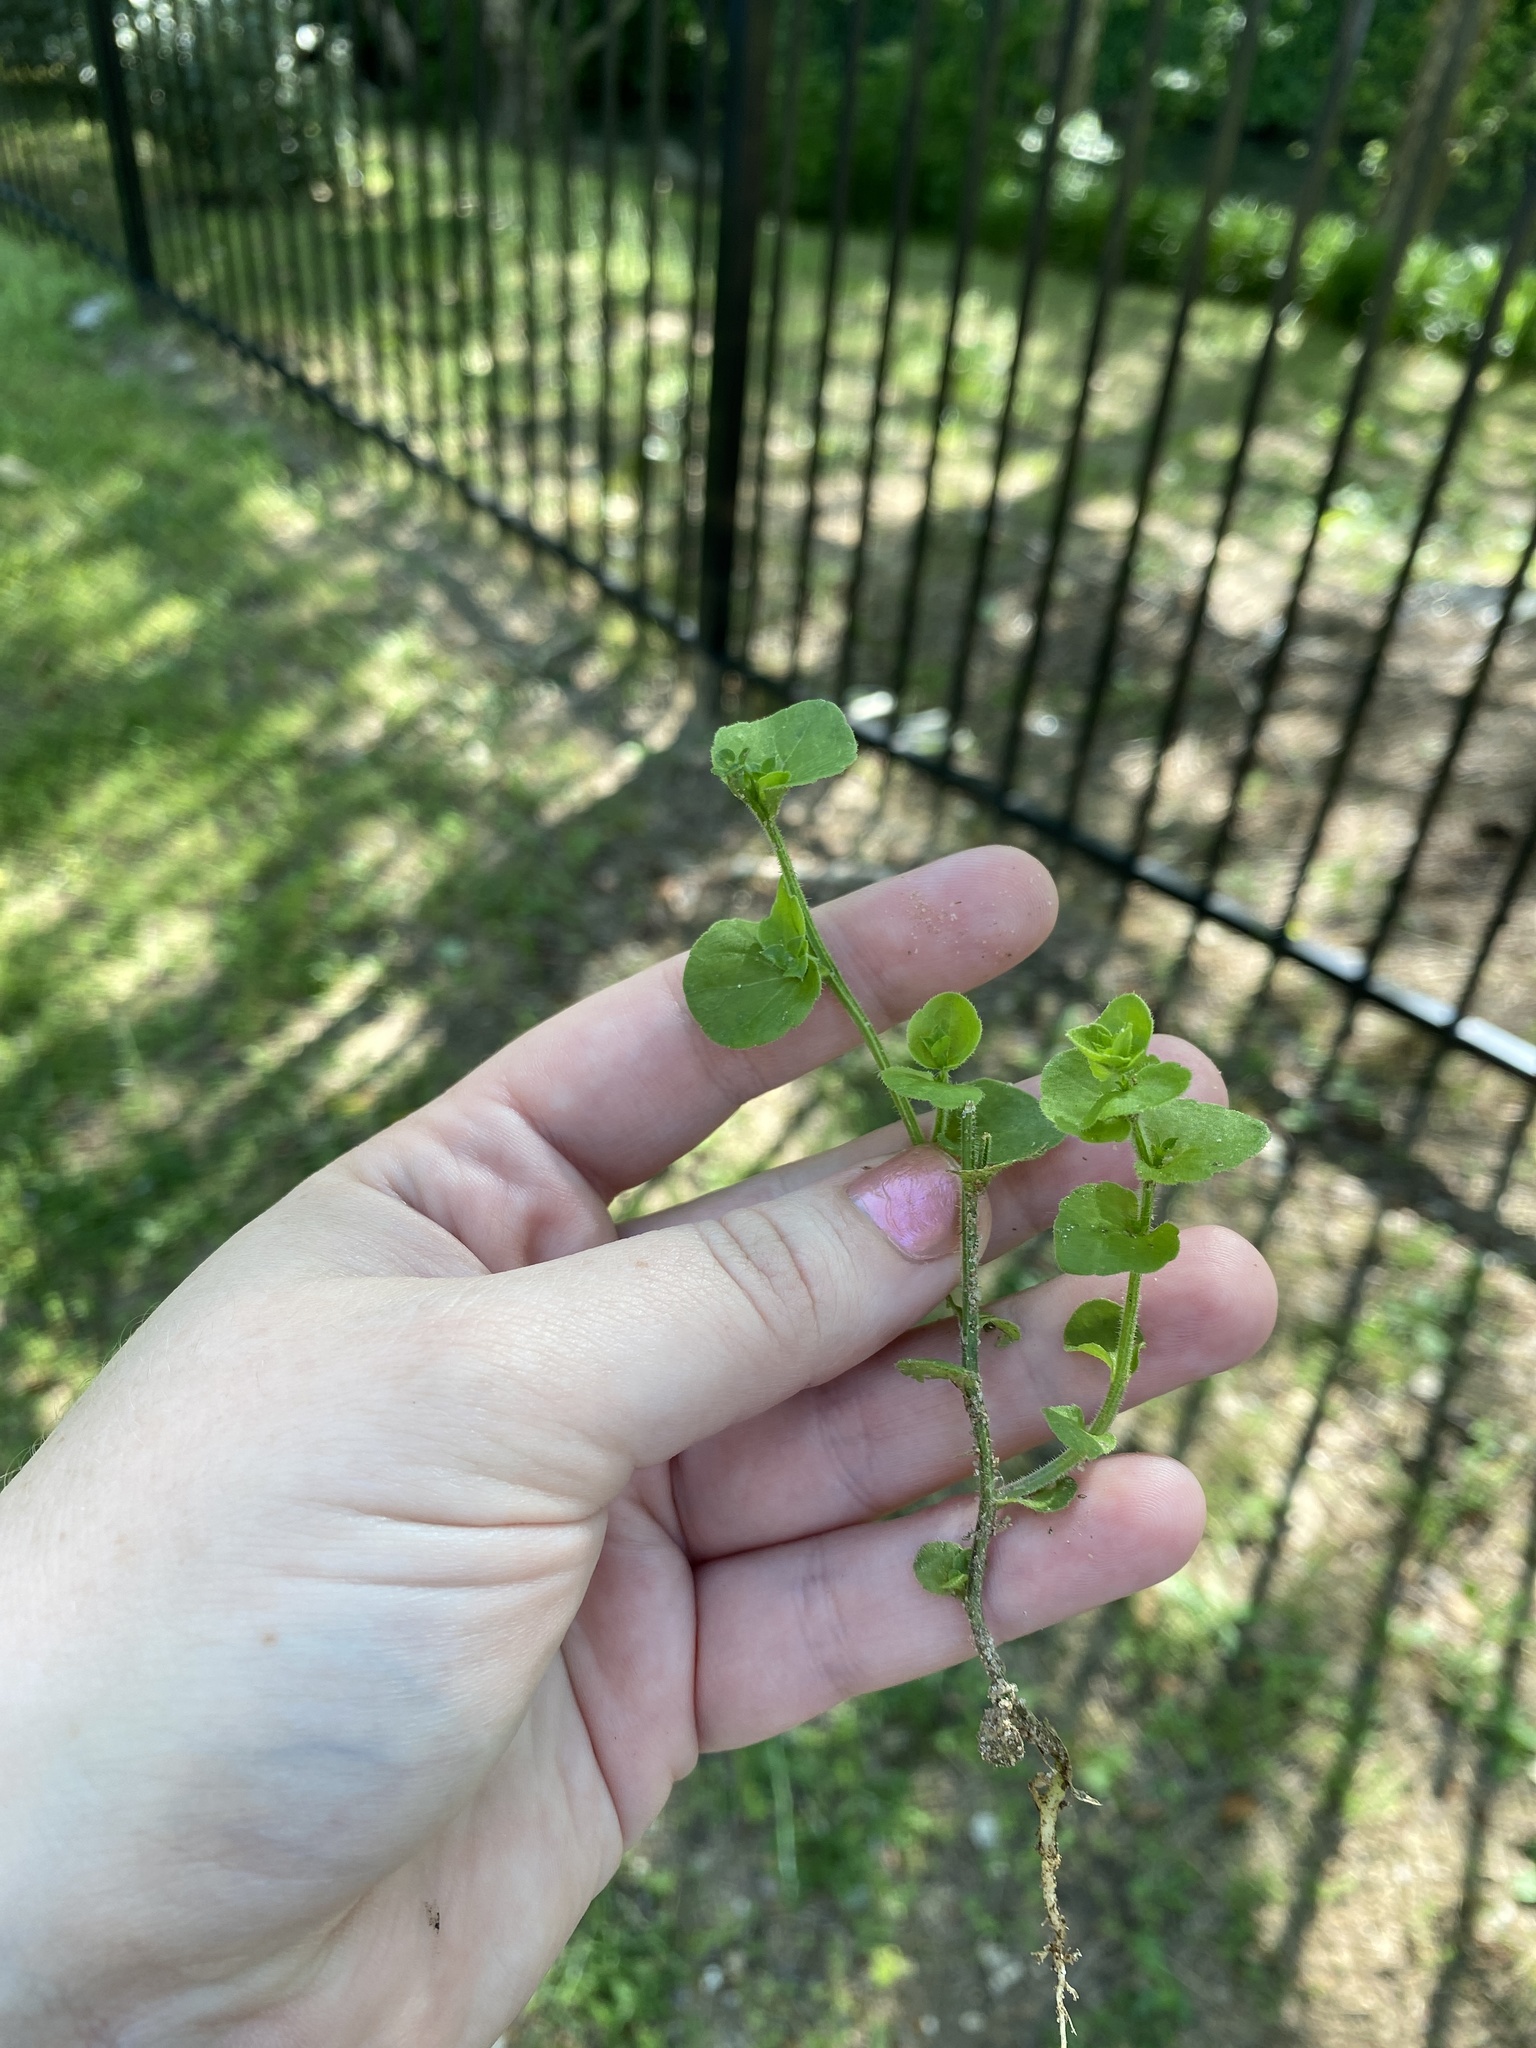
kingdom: Plantae
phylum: Tracheophyta
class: Magnoliopsida
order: Asterales
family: Campanulaceae
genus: Triodanis
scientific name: Triodanis perfoliata
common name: Clasping venus' looking-glass
